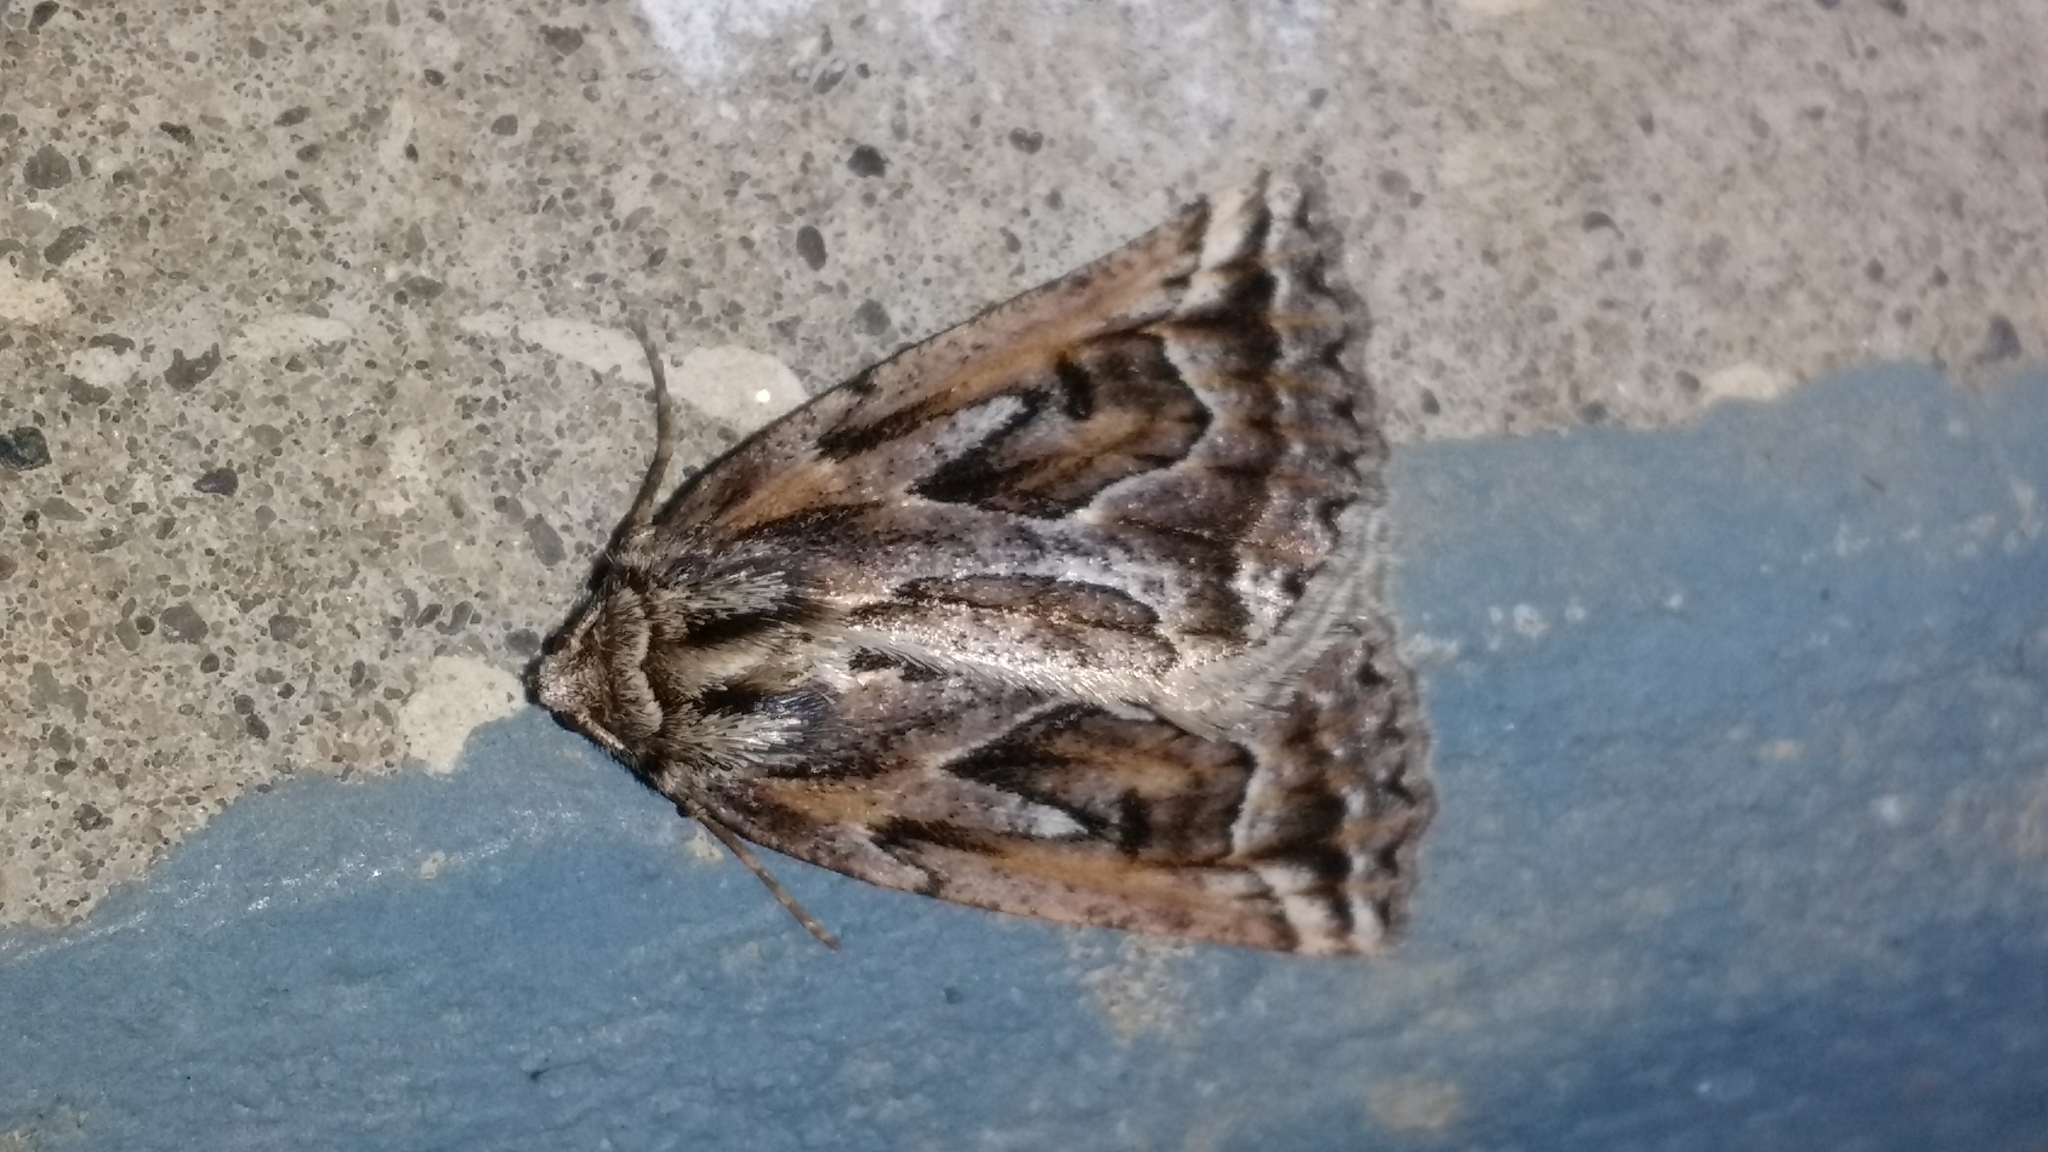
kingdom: Animalia
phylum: Arthropoda
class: Insecta
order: Lepidoptera
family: Geometridae
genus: Pseudaleucis
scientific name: Pseudaleucis
